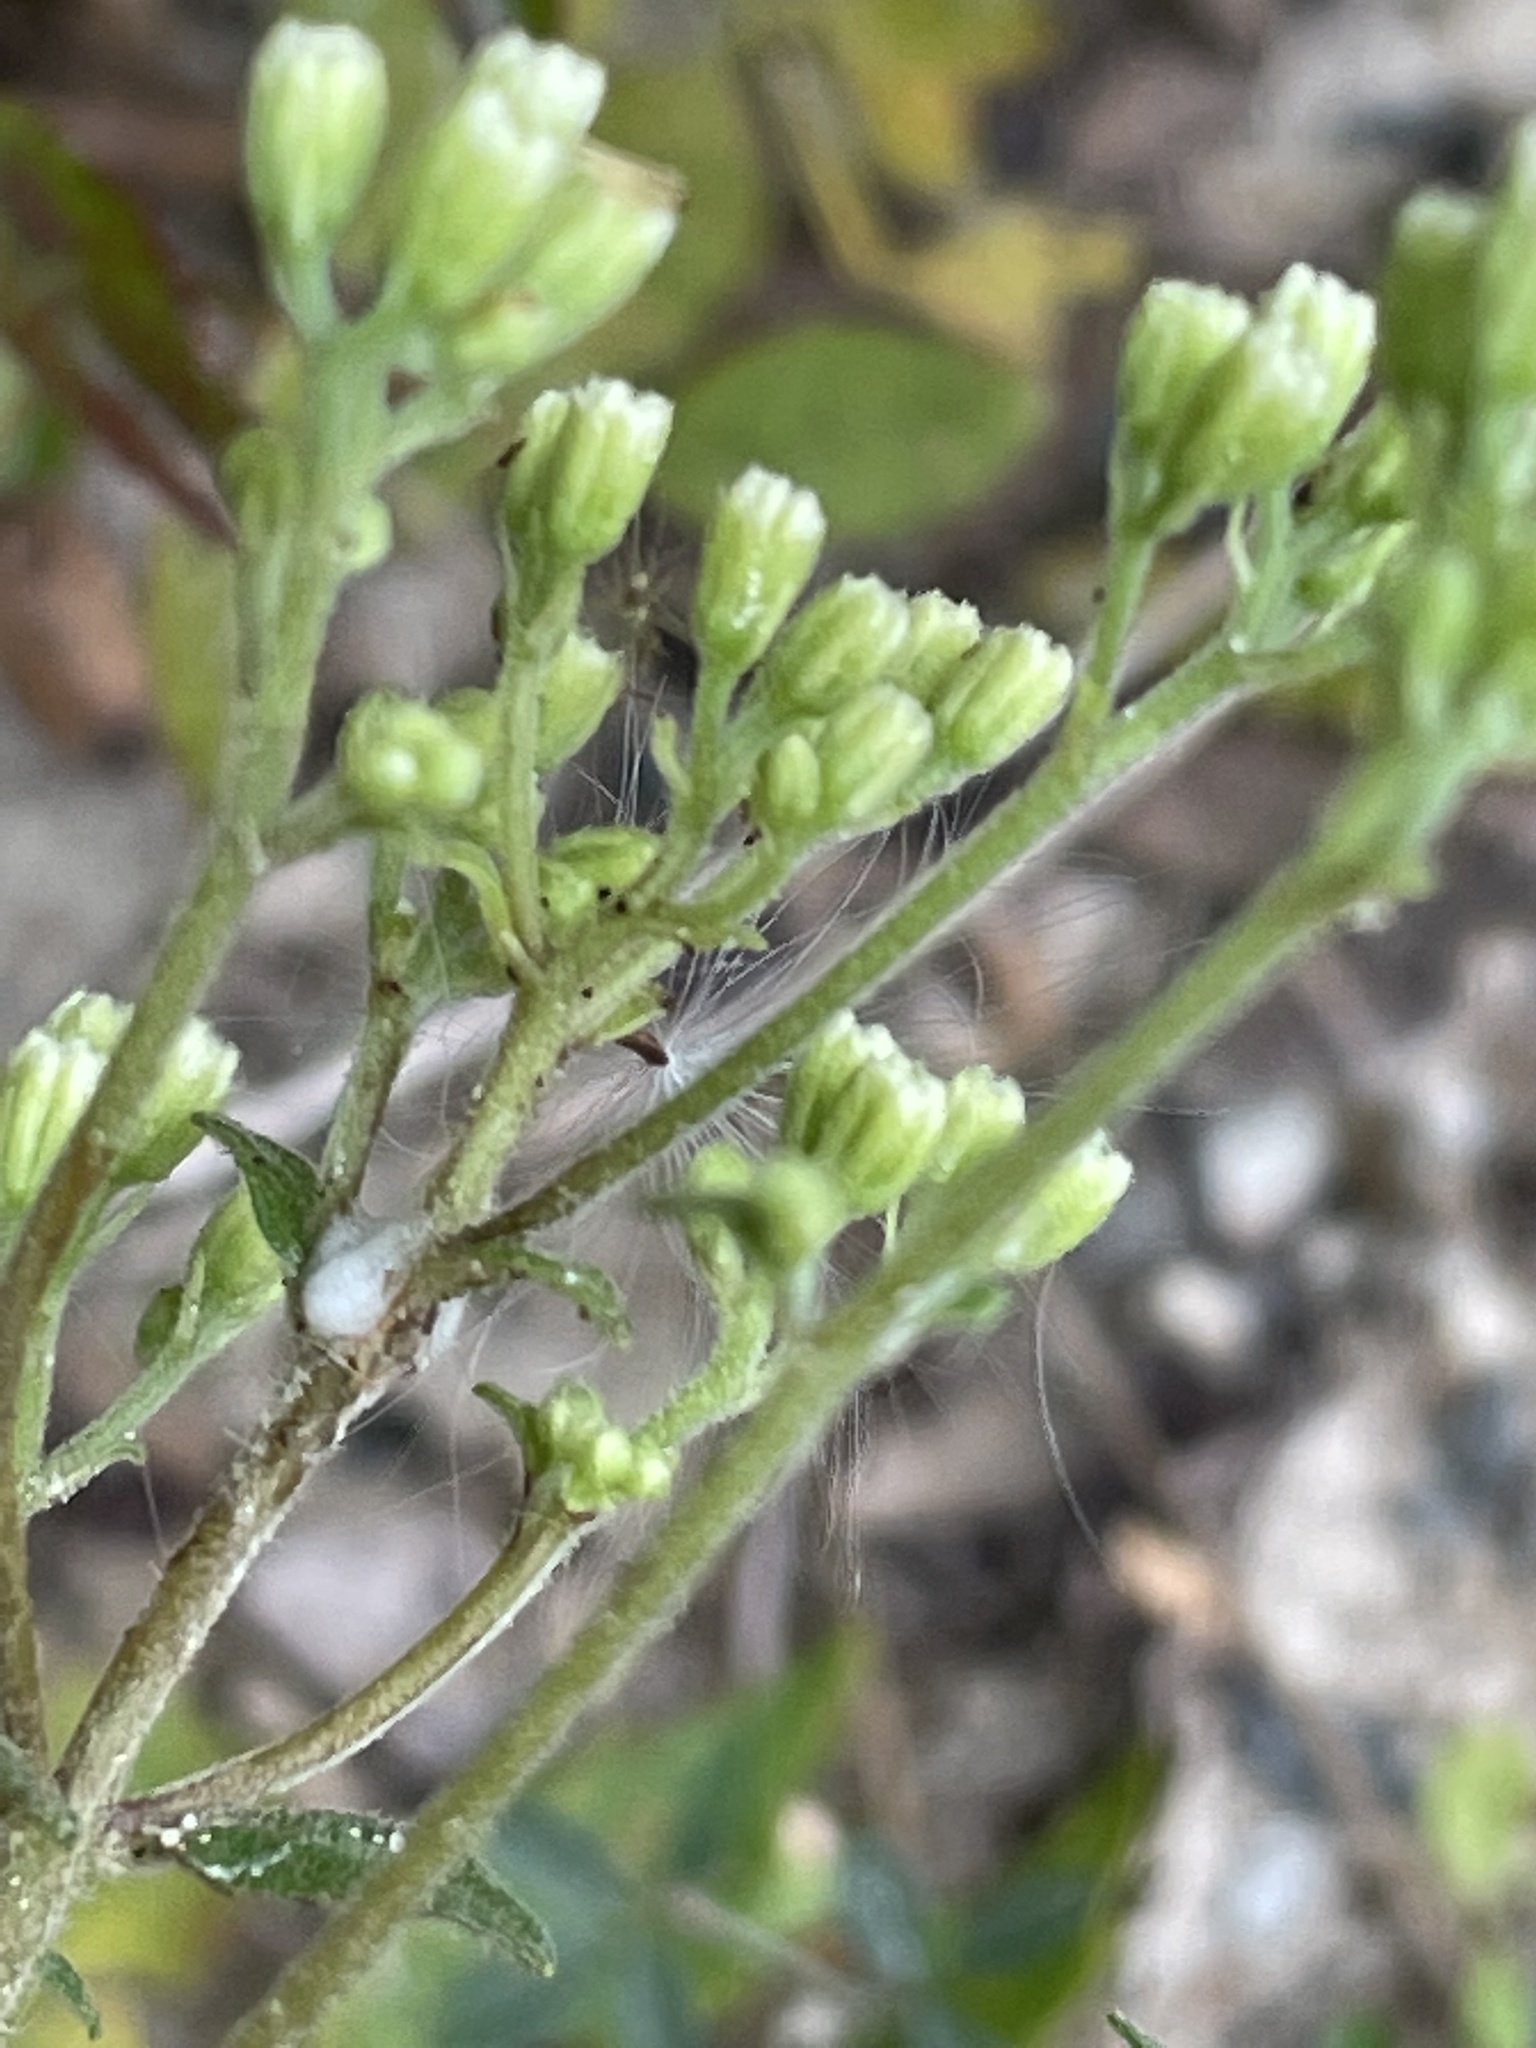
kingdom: Plantae
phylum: Tracheophyta
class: Magnoliopsida
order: Asterales
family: Asteraceae
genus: Ageratina
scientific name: Ageratina aromatica
